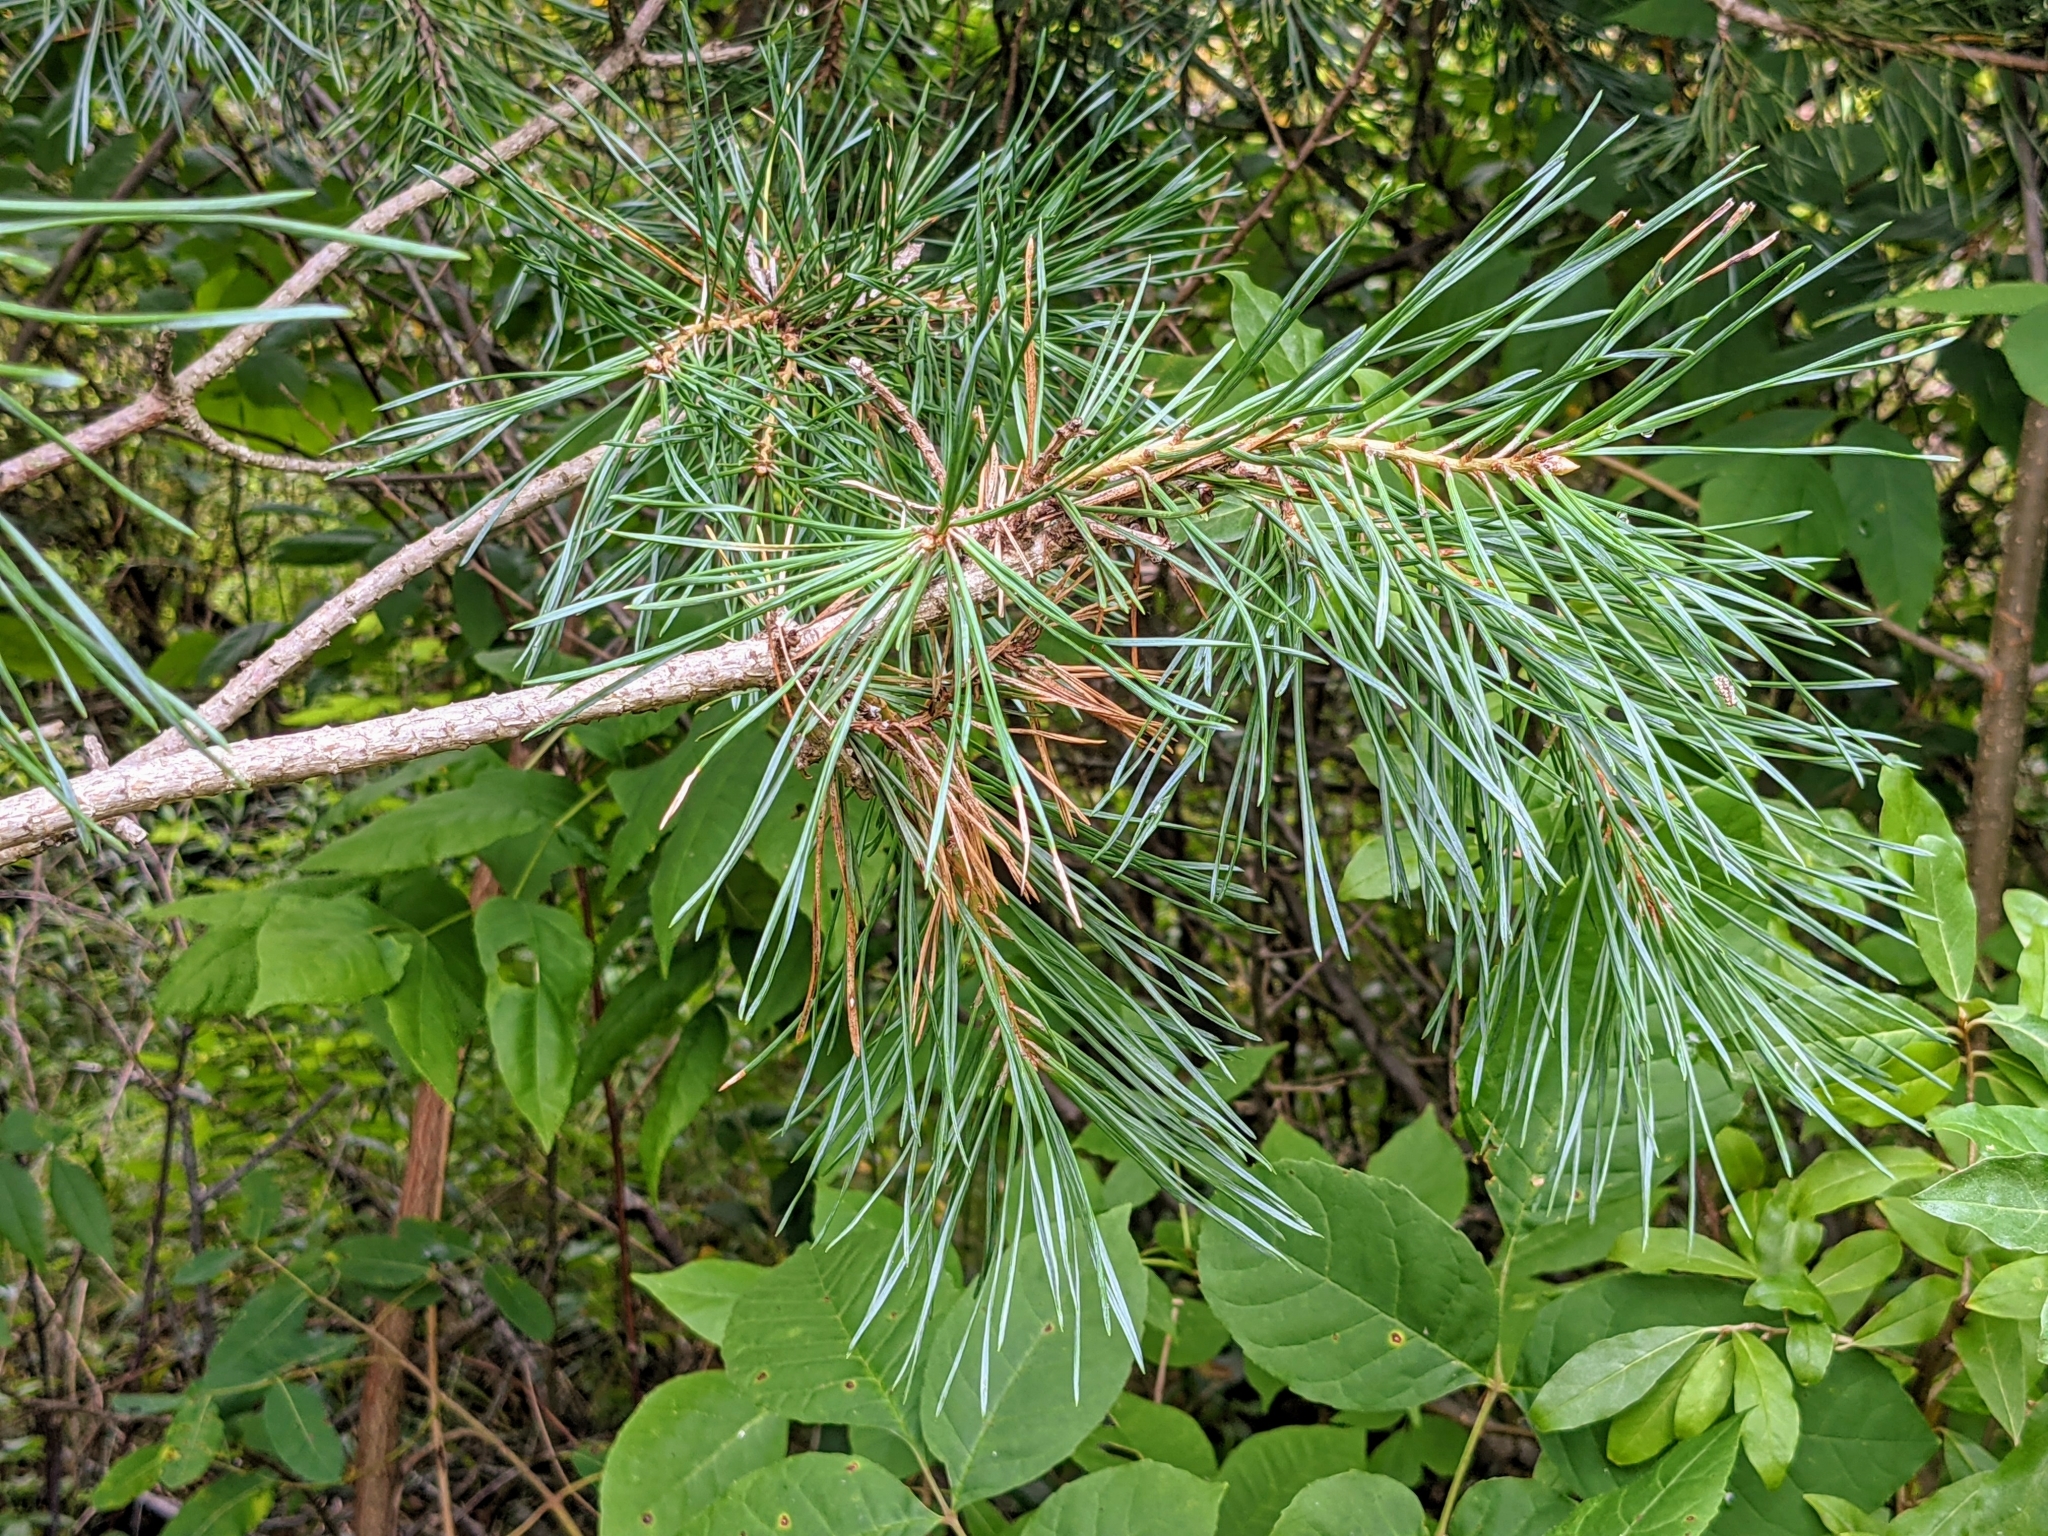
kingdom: Plantae
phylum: Tracheophyta
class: Pinopsida
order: Pinales
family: Pinaceae
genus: Pinus
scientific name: Pinus strobus
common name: Weymouth pine
